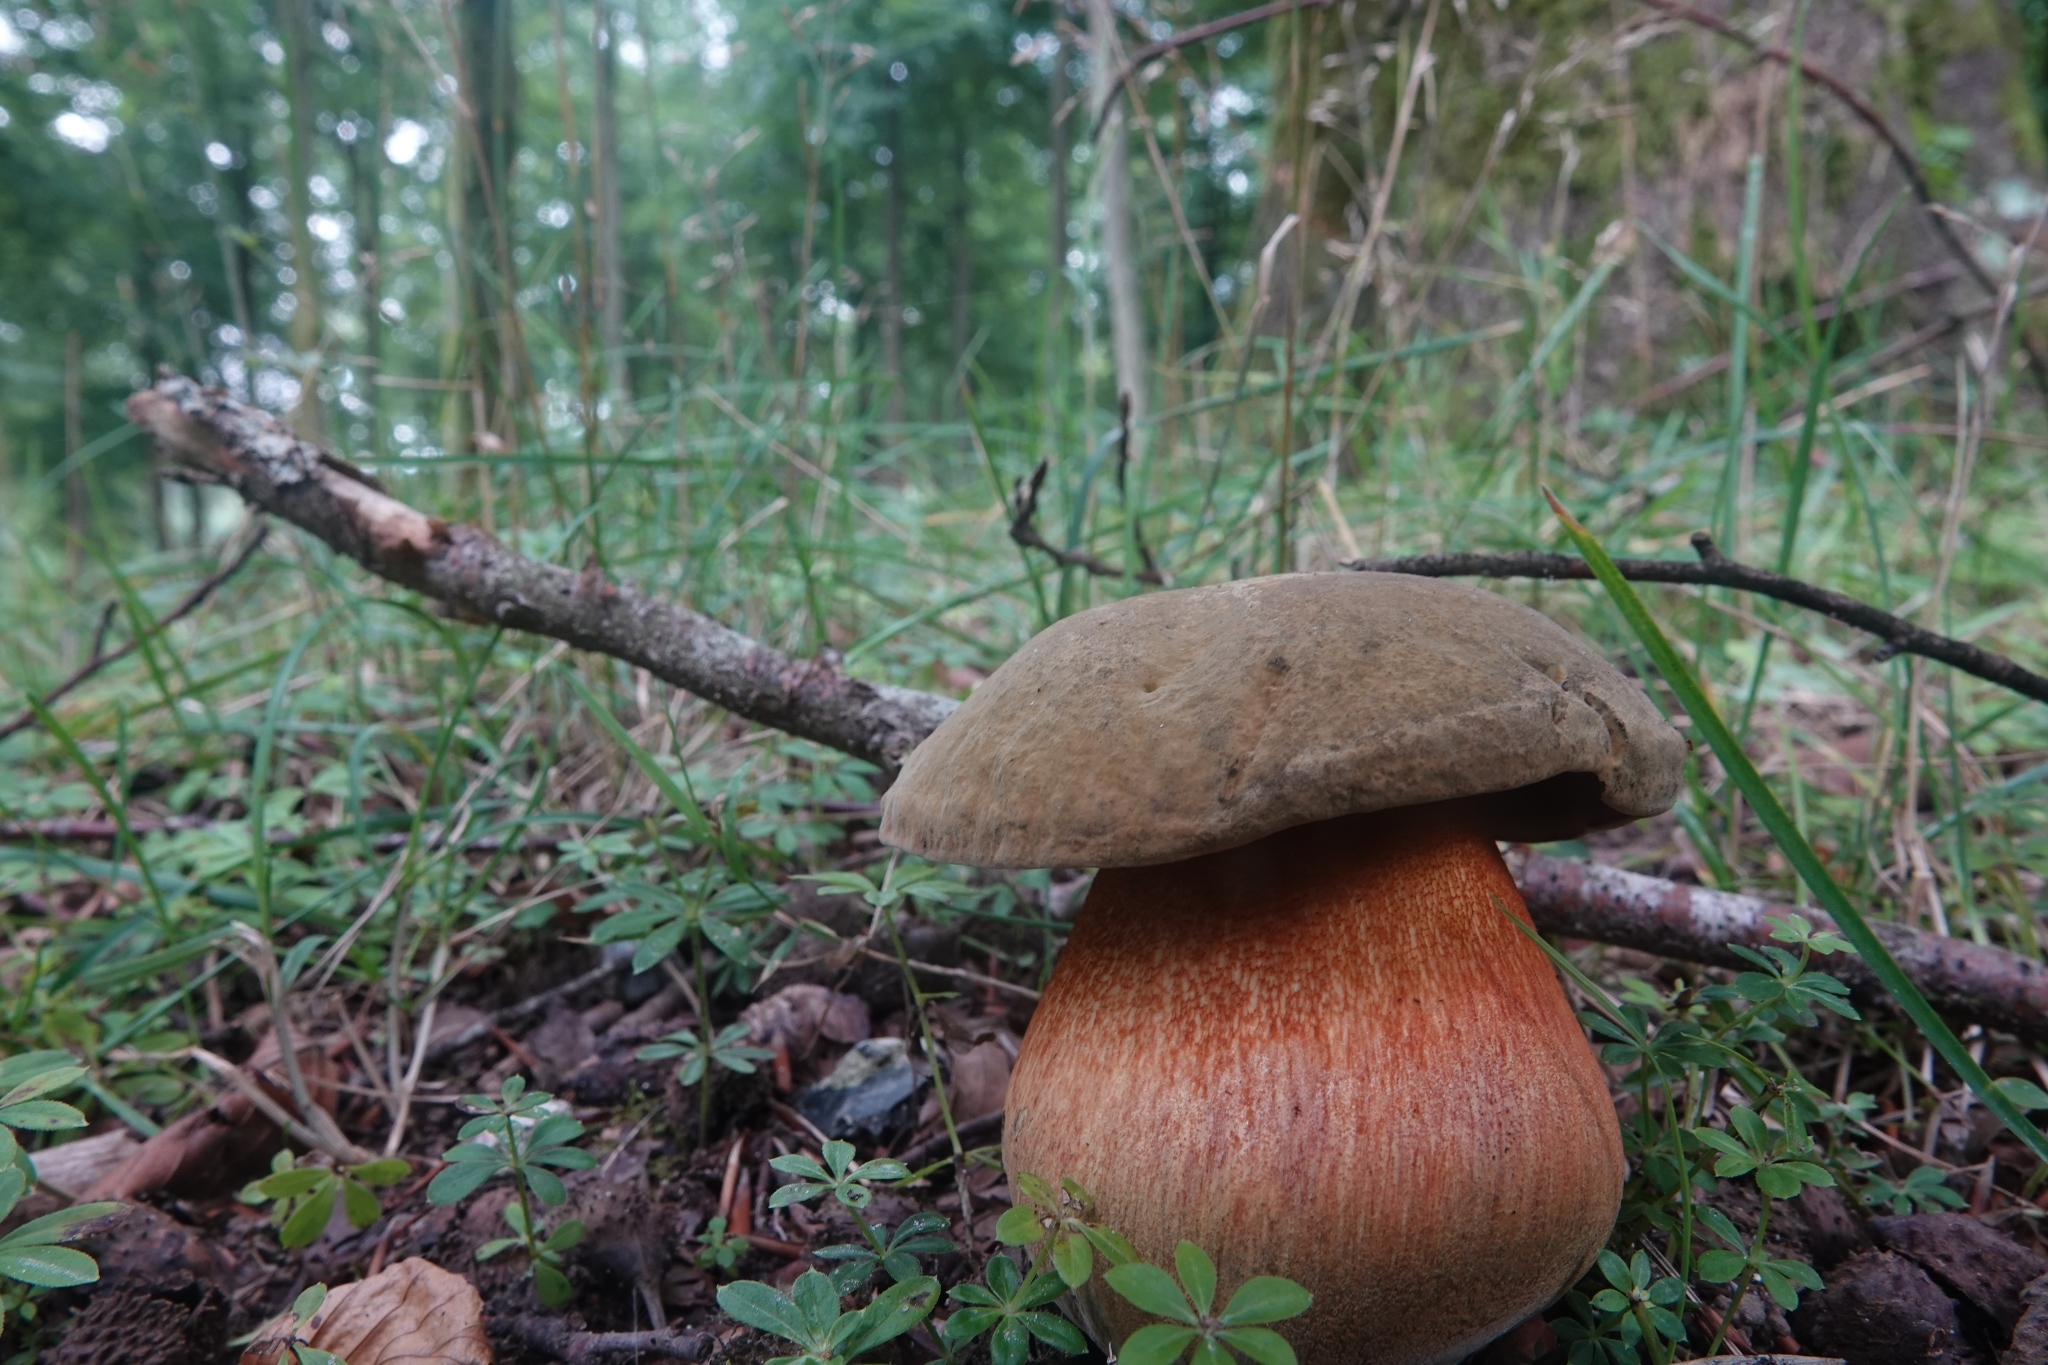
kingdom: Fungi
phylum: Basidiomycota
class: Agaricomycetes
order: Boletales
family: Boletaceae
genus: Neoboletus
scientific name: Neoboletus luridiformis
